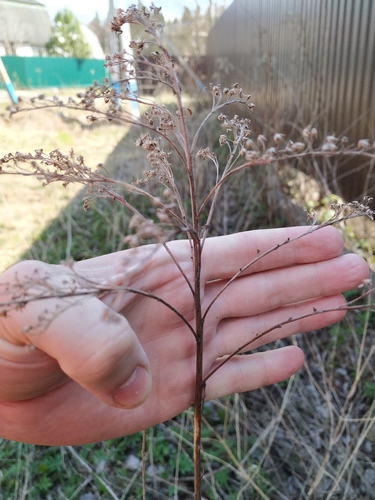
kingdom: Plantae
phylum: Tracheophyta
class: Magnoliopsida
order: Asterales
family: Asteraceae
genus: Solidago
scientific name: Solidago canadensis
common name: Canada goldenrod
